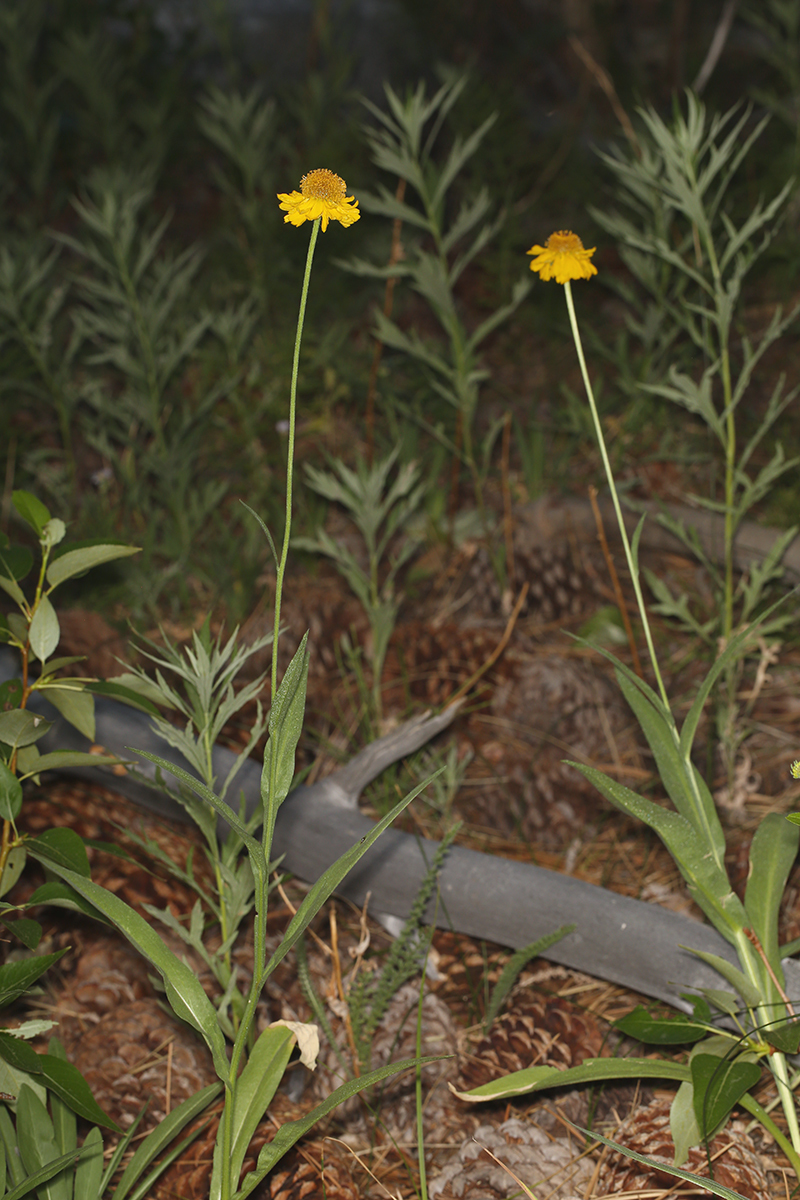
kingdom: Plantae
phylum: Tracheophyta
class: Magnoliopsida
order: Asterales
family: Asteraceae
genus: Helenium
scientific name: Helenium bigelovii
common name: Bigelow's sneezeweed
